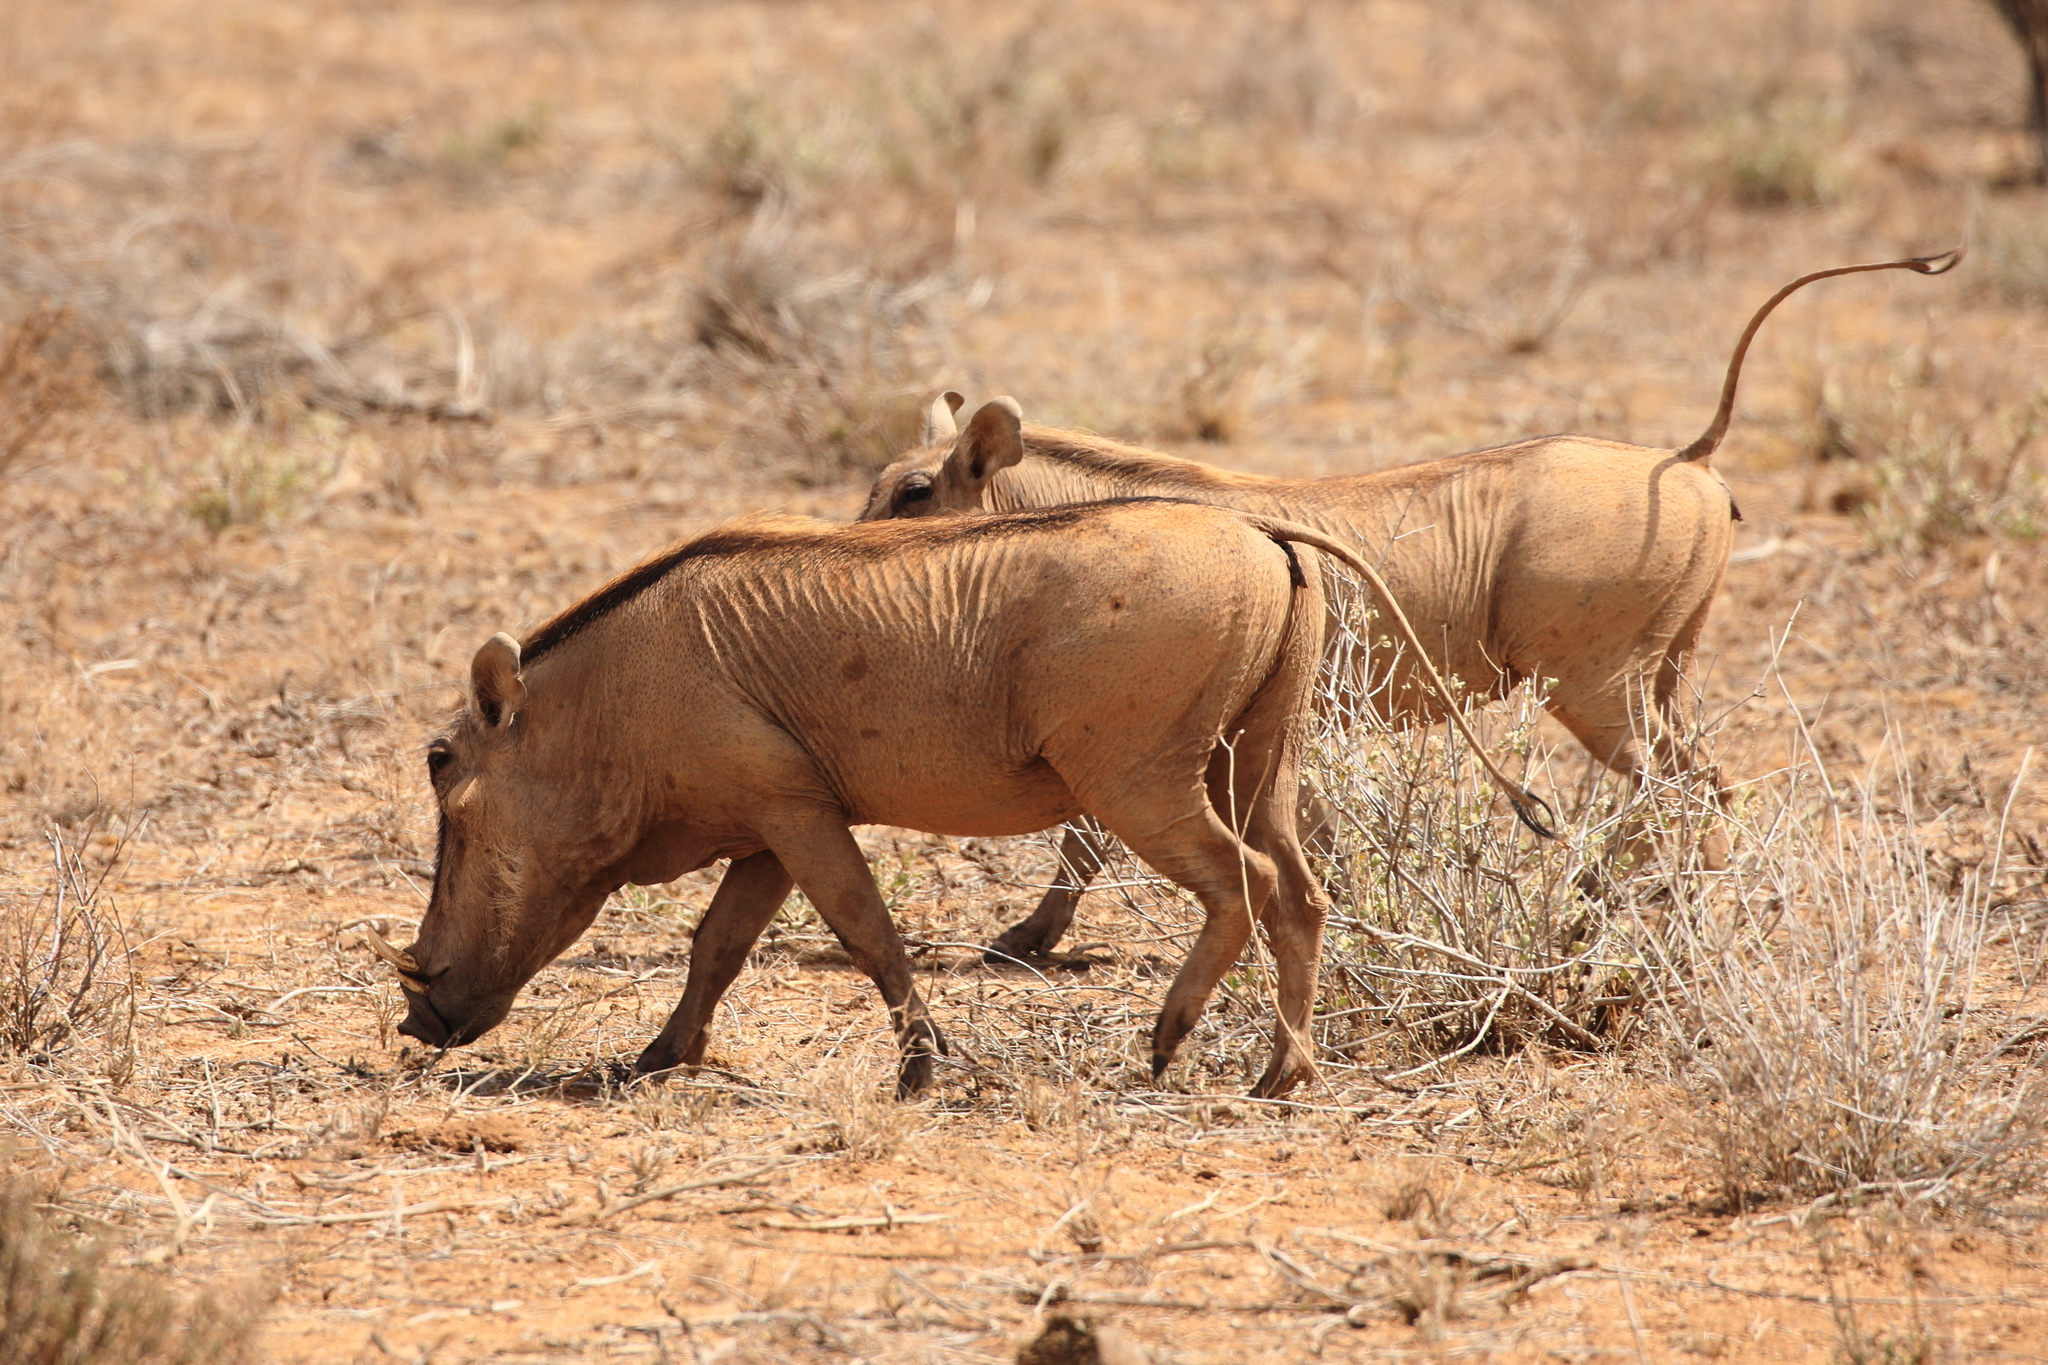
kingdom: Animalia
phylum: Chordata
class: Mammalia
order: Artiodactyla
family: Suidae
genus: Phacochoerus
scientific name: Phacochoerus aethiopicus
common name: Desert warthog
